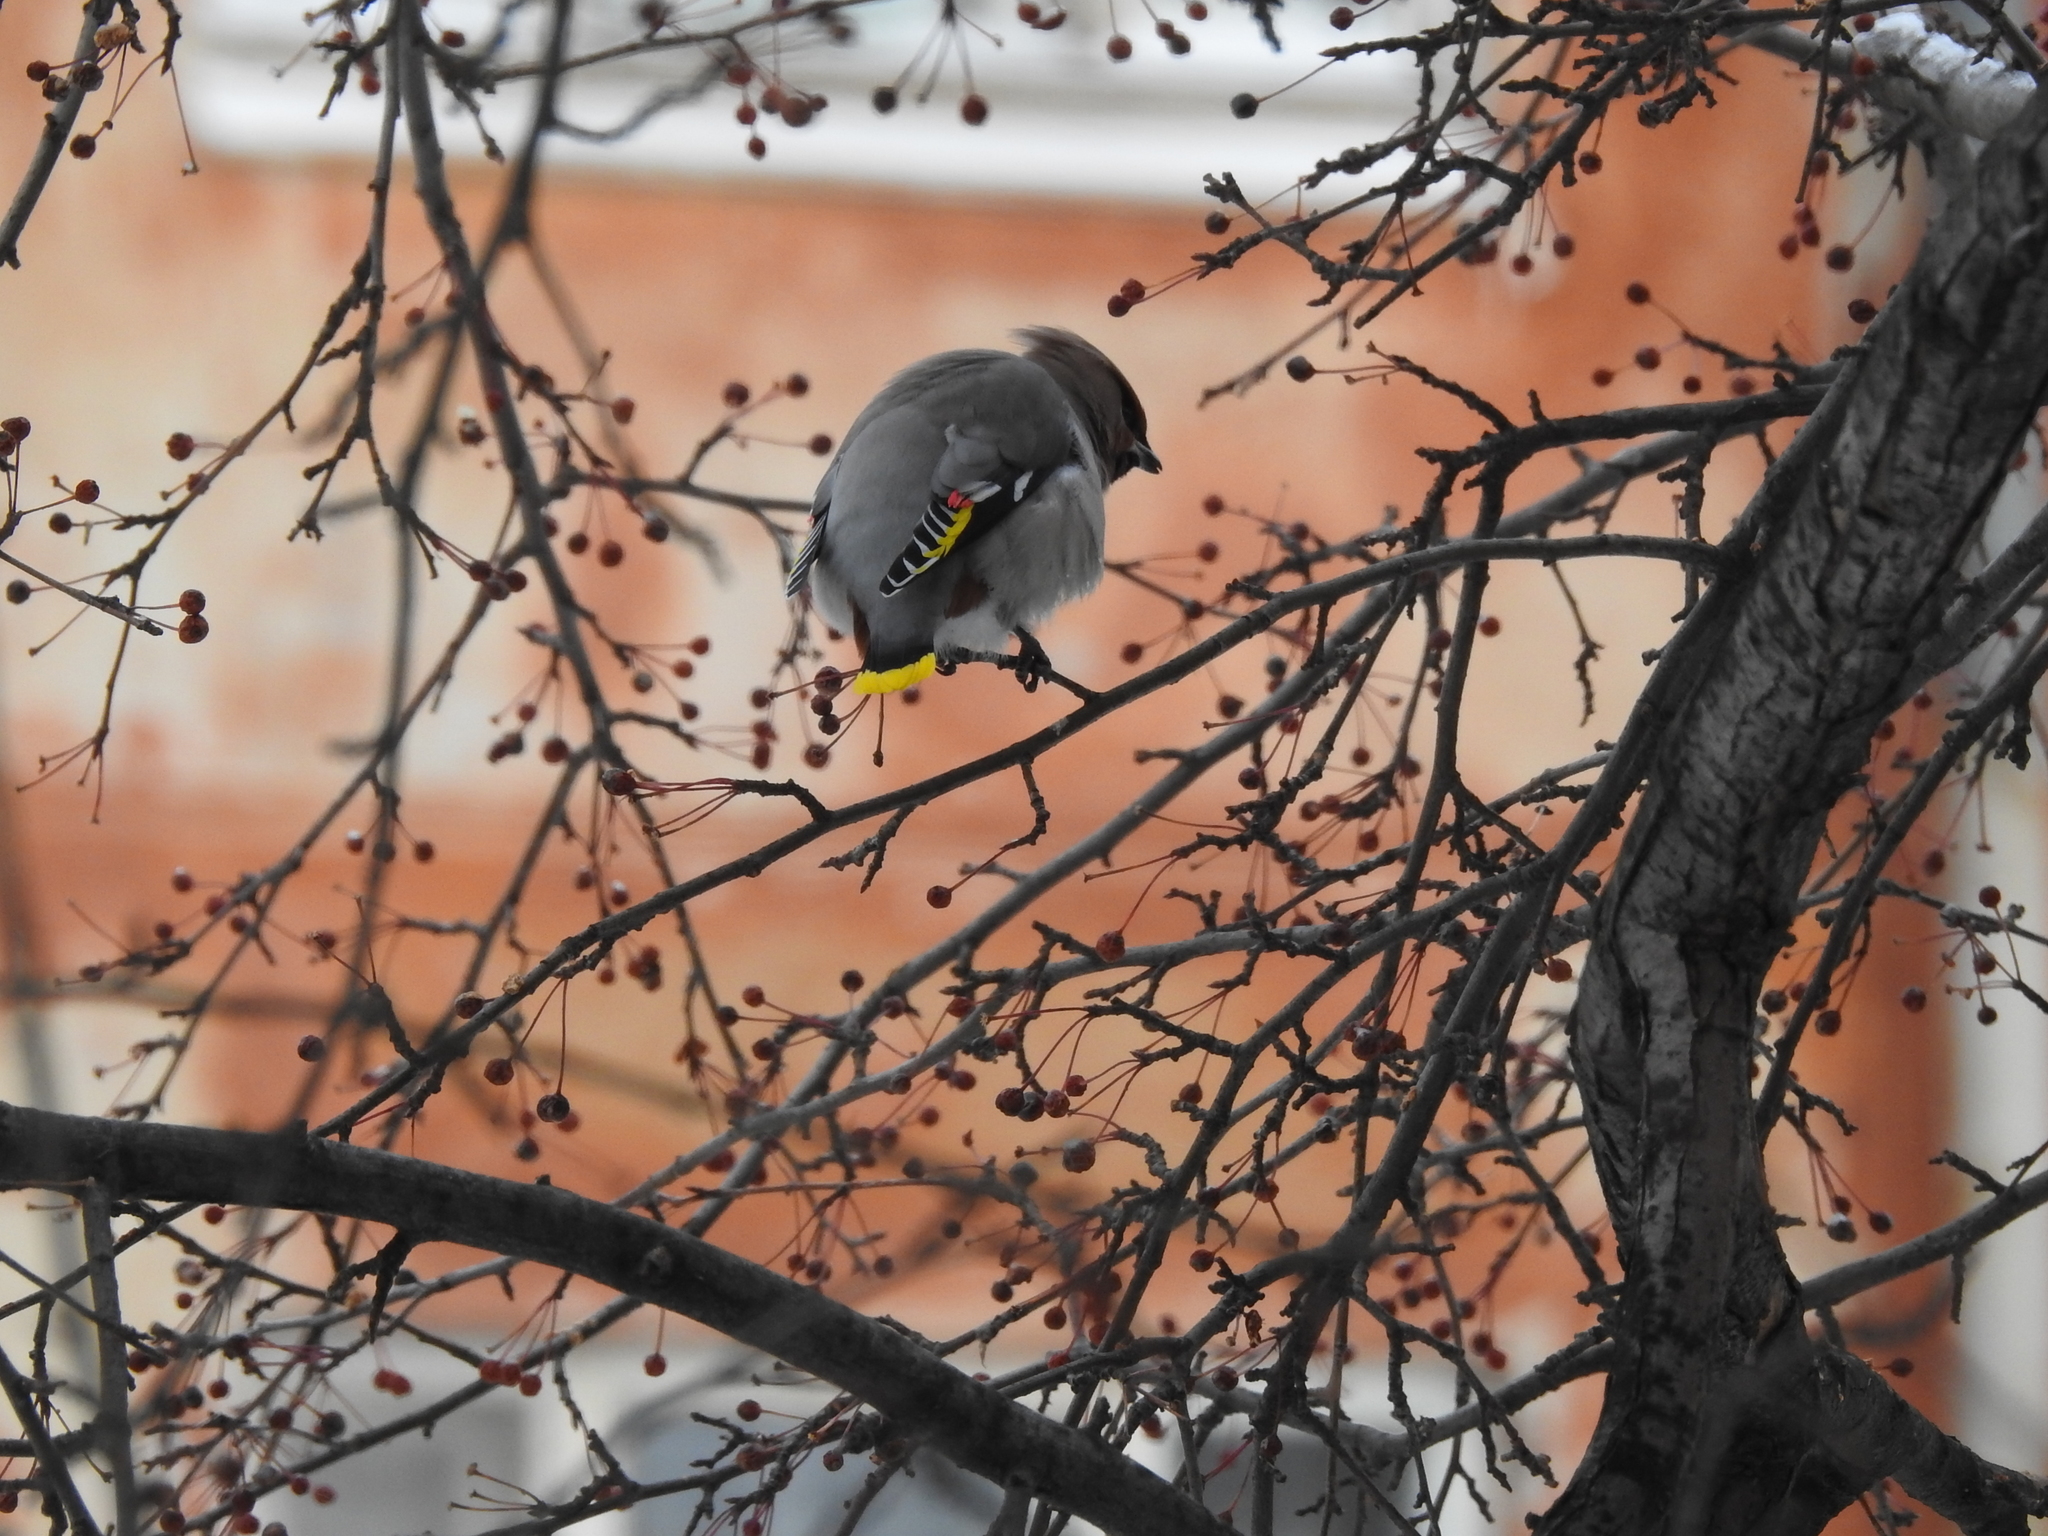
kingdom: Animalia
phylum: Chordata
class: Aves
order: Passeriformes
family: Bombycillidae
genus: Bombycilla
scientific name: Bombycilla garrulus
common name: Bohemian waxwing
